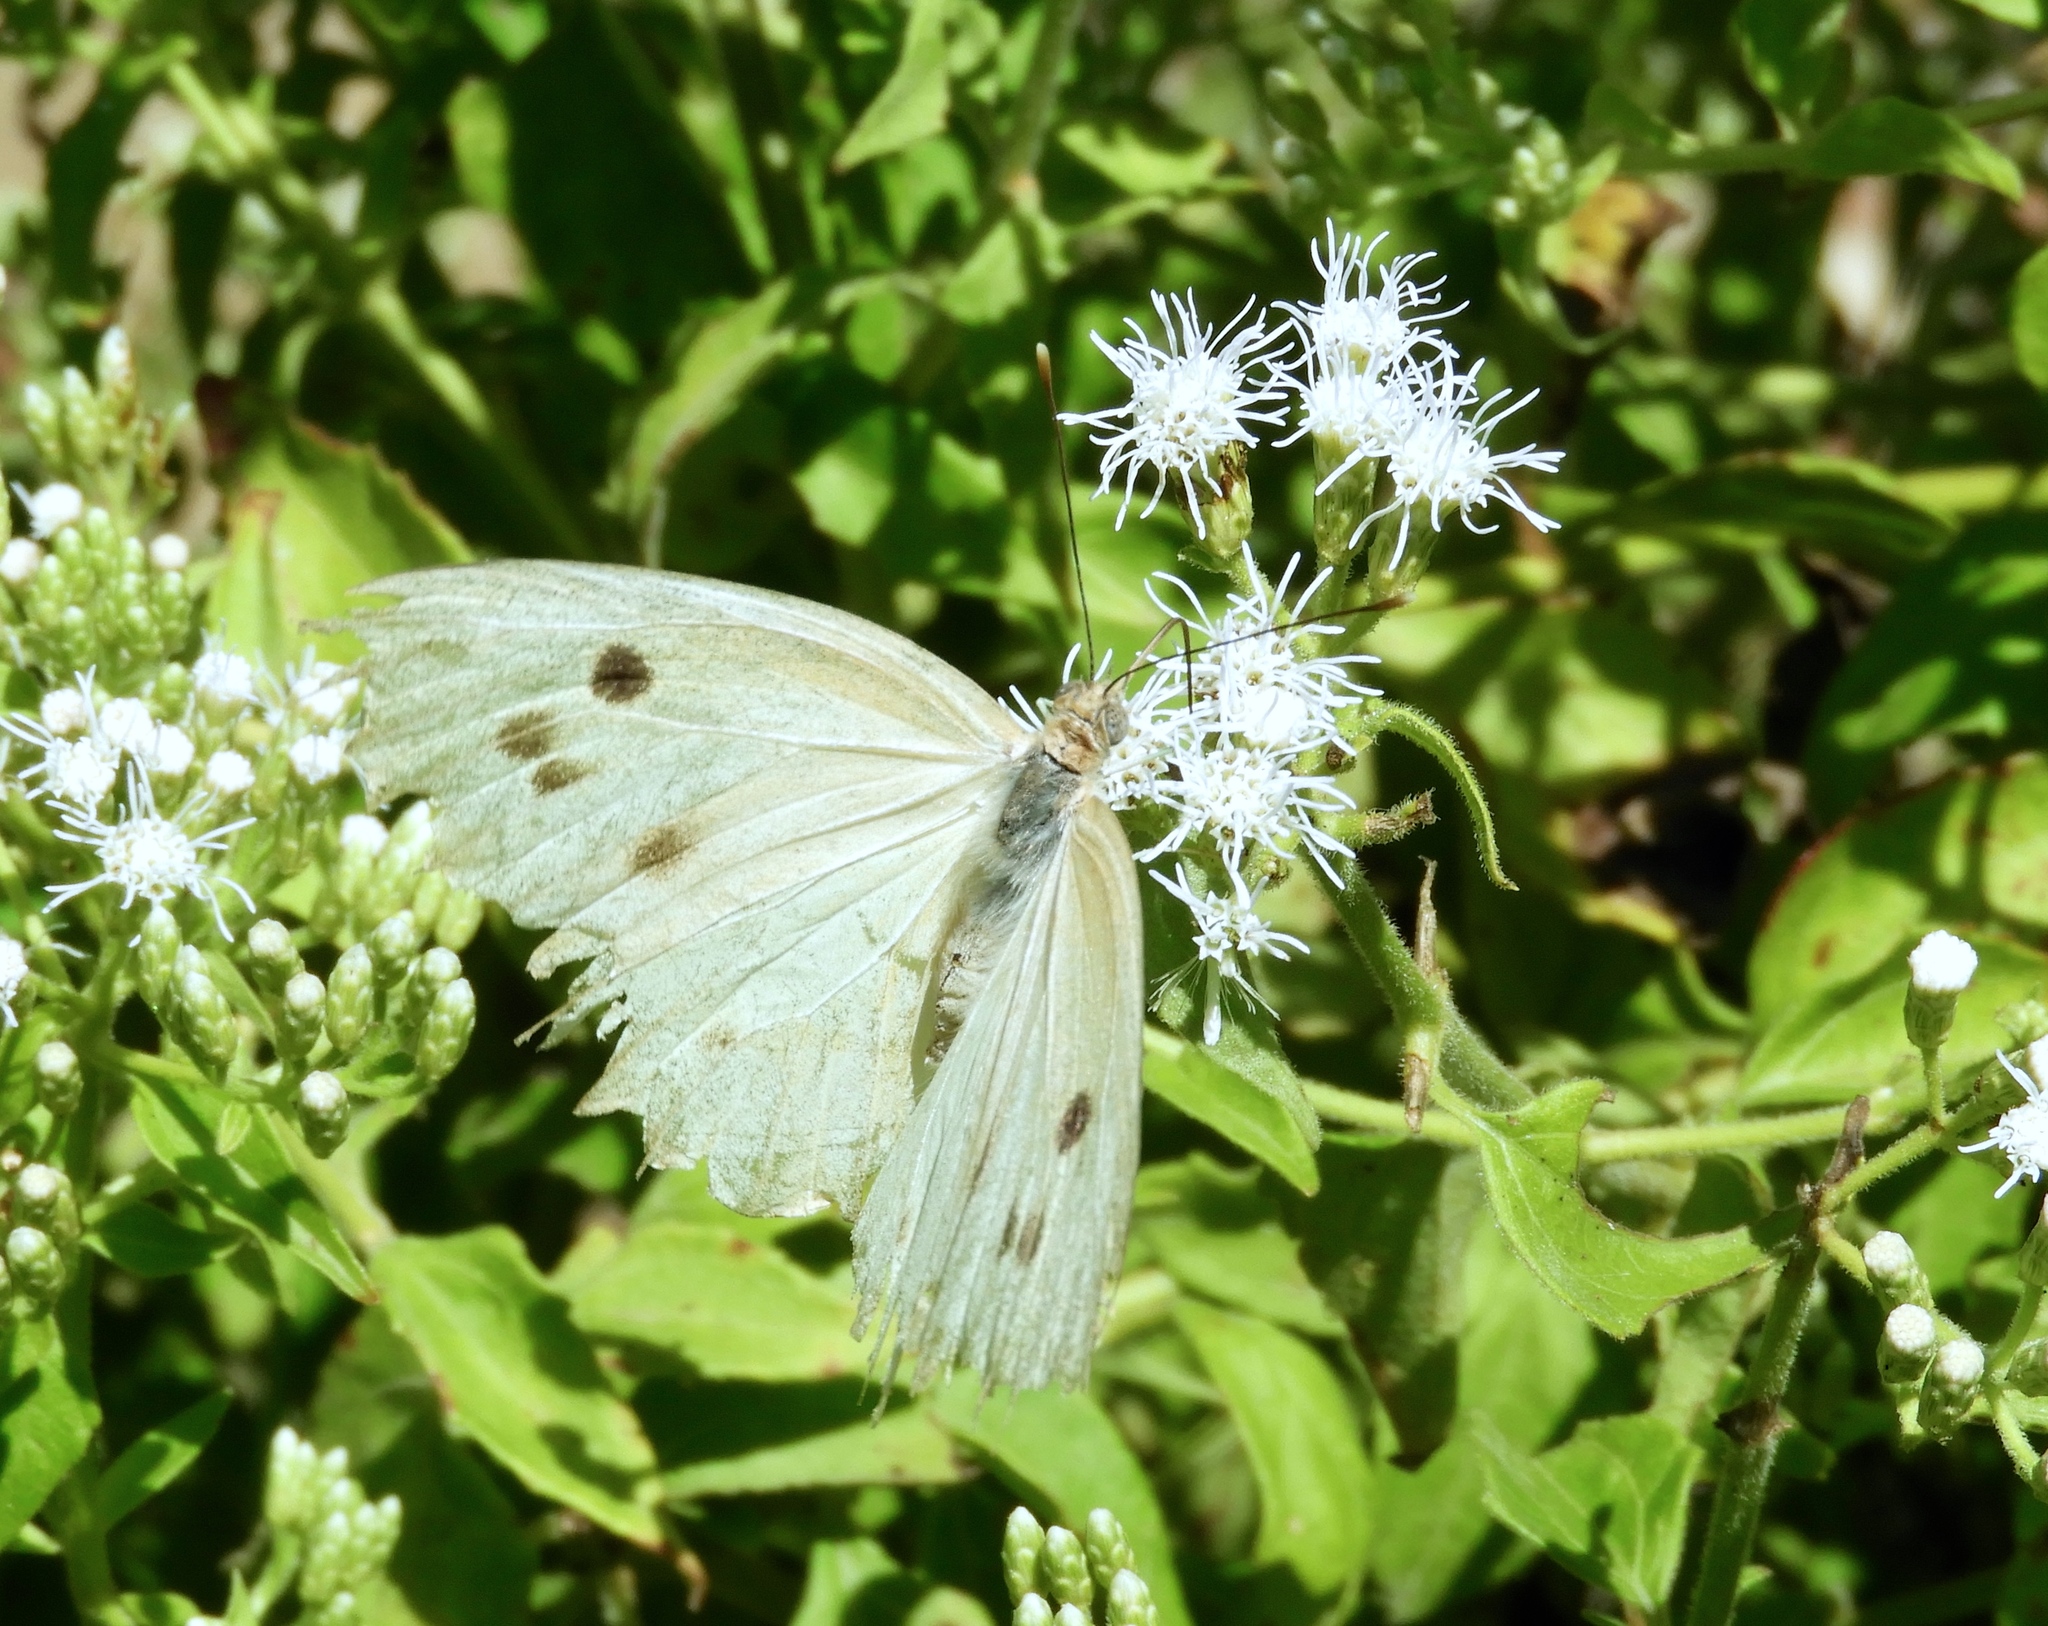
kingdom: Animalia
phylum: Arthropoda
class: Insecta
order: Lepidoptera
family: Pieridae
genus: Ganyra
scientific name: Ganyra josephina
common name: Giant white
